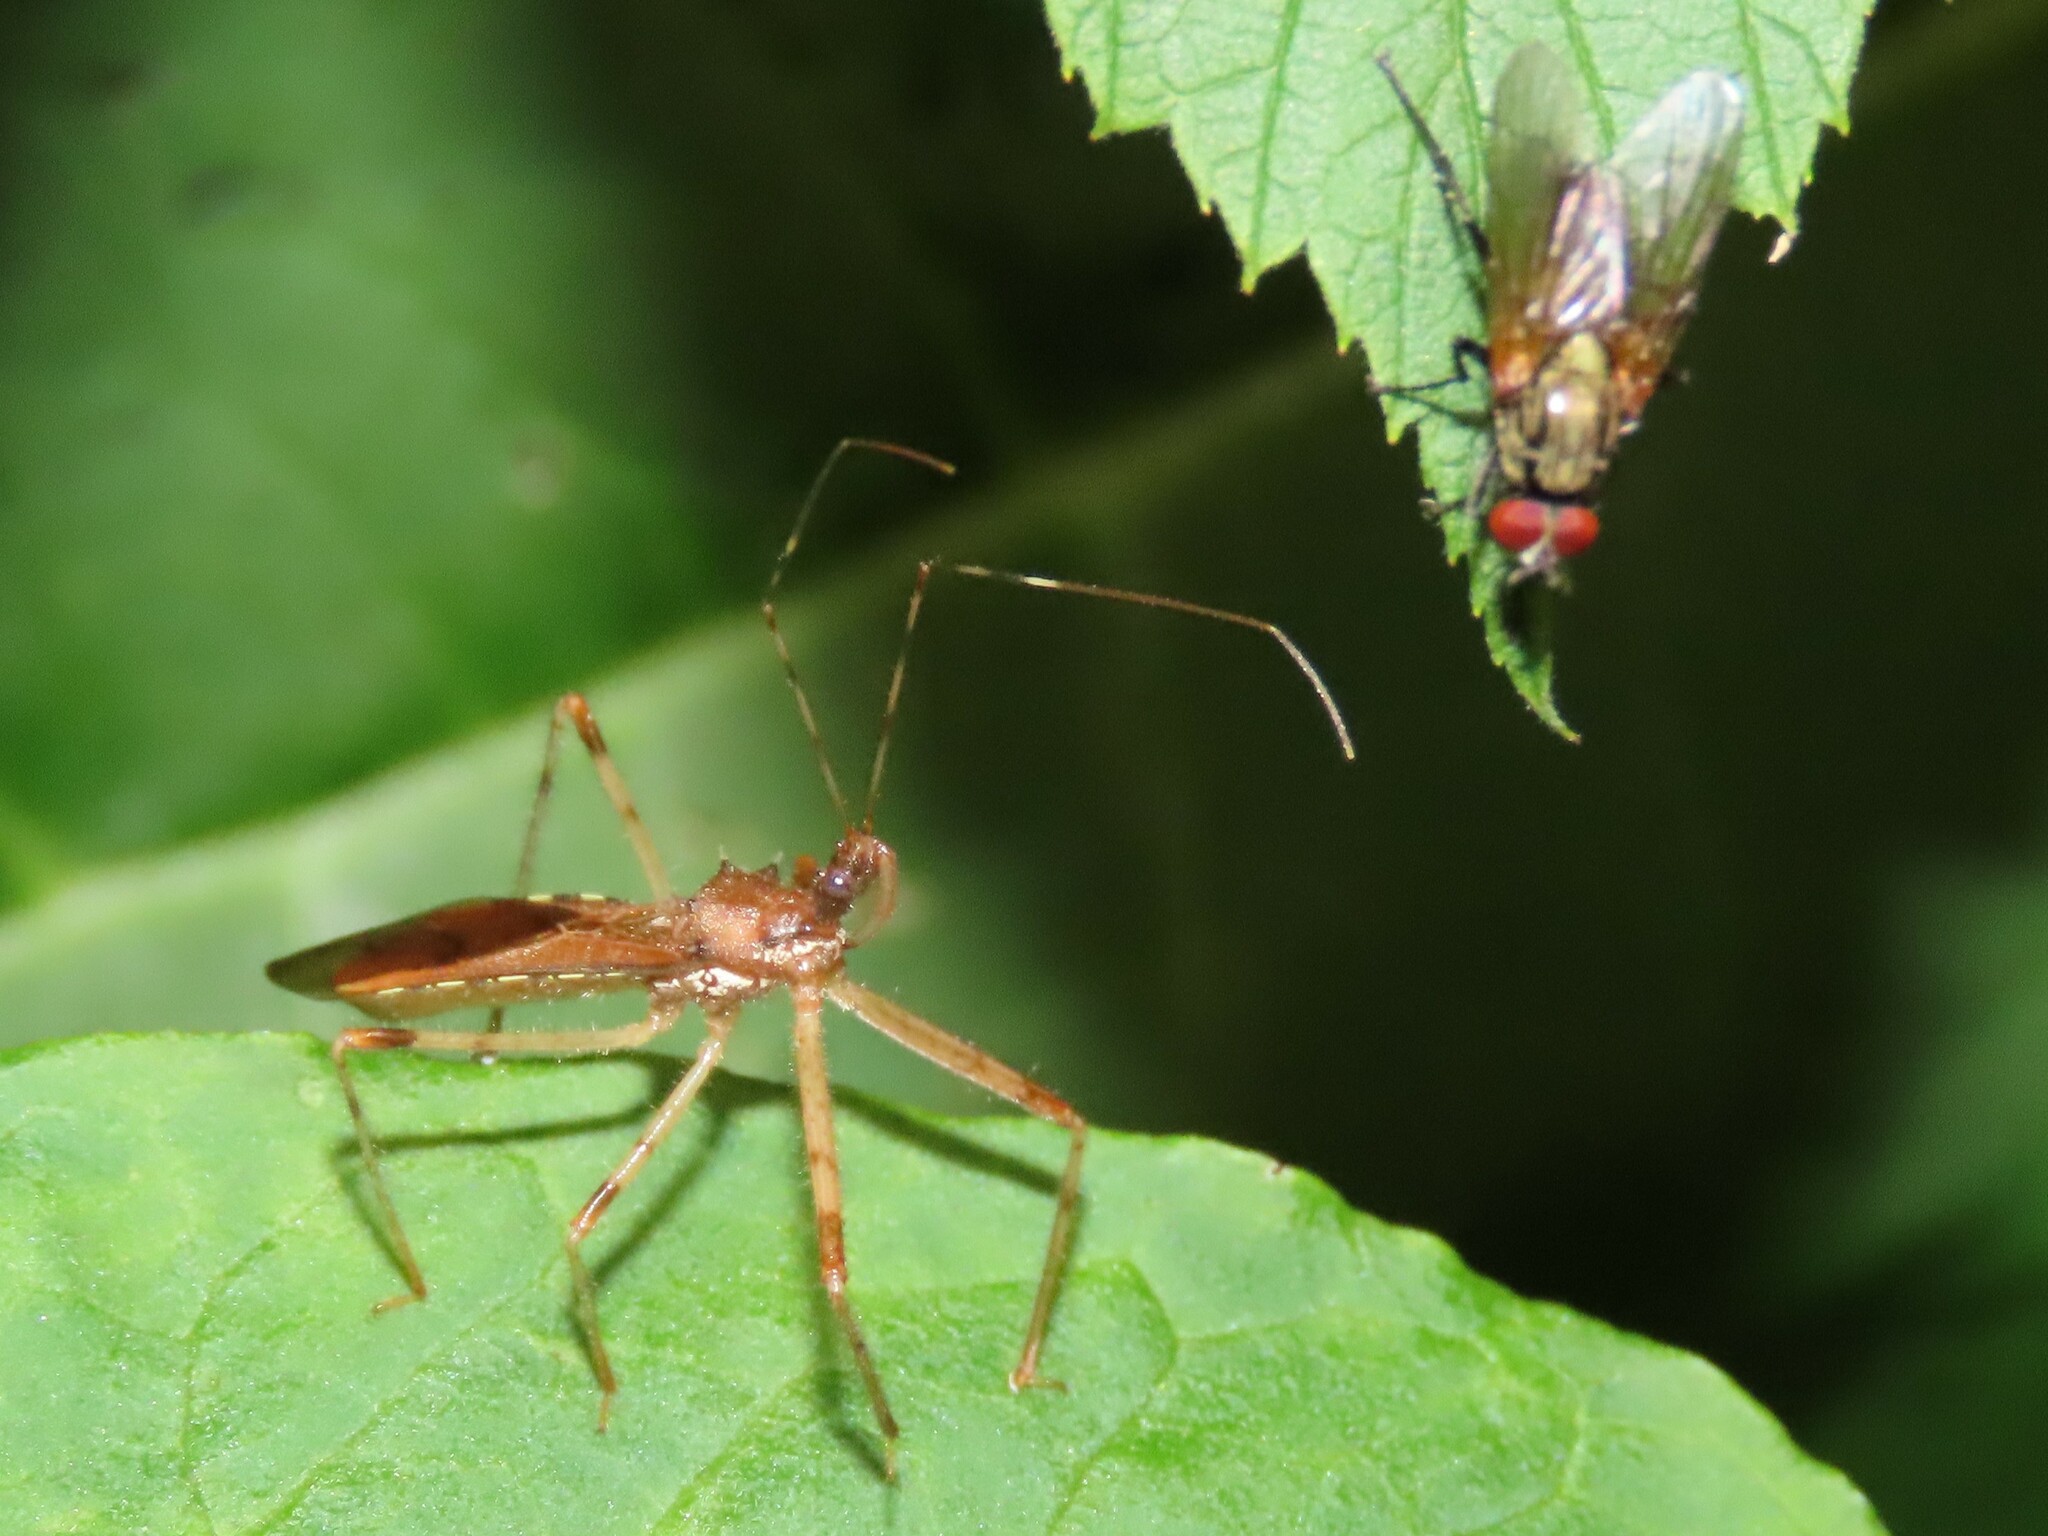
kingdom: Animalia
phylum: Arthropoda
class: Insecta
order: Hemiptera
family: Reduviidae
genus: Rocconota
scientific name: Rocconota annulicornis
